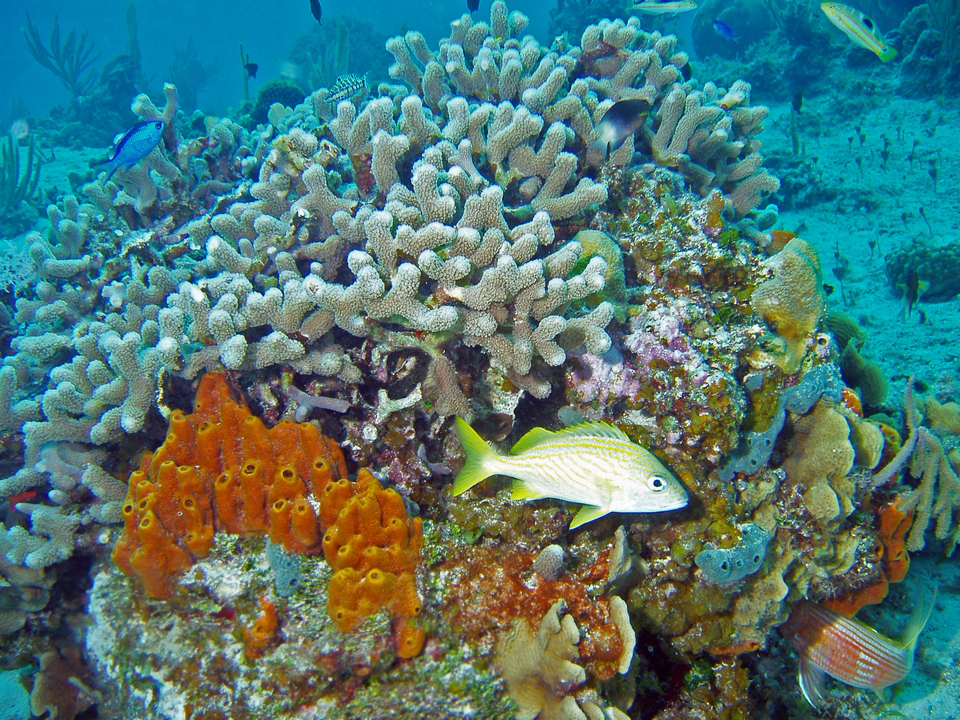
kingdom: Animalia
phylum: Chordata
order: Perciformes
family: Haemulidae
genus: Haemulon
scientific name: Haemulon flavolineatum
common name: French grunt
